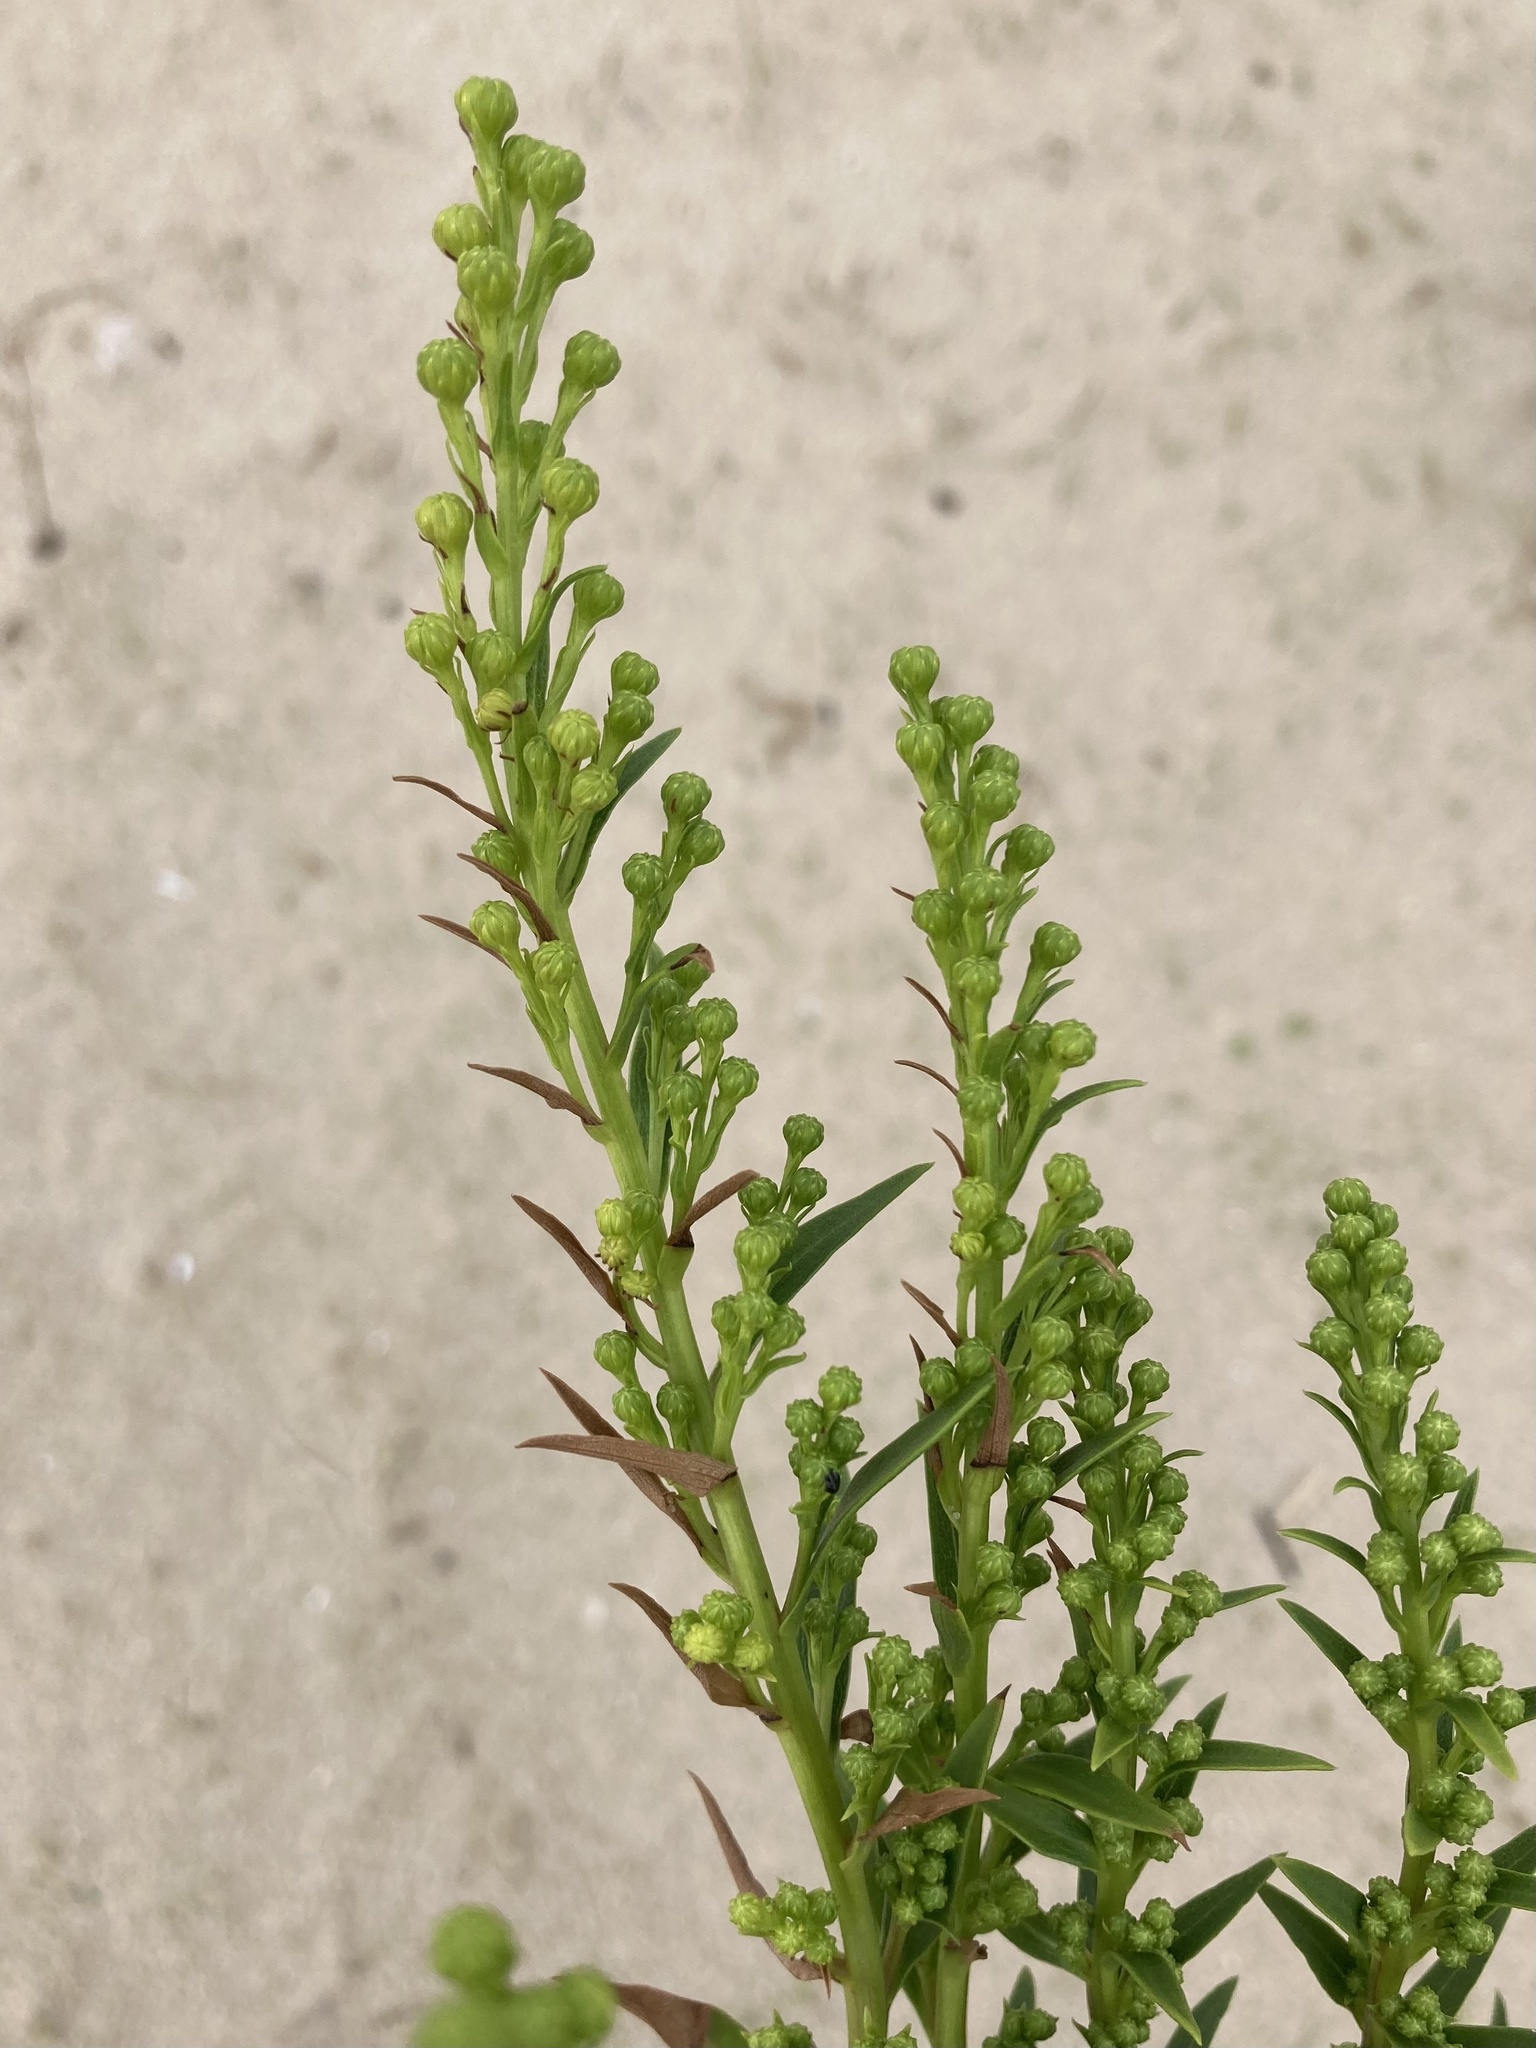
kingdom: Plantae
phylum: Tracheophyta
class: Magnoliopsida
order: Asterales
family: Asteraceae
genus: Solidago
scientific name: Solidago sempervirens
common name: Salt-marsh goldenrod
